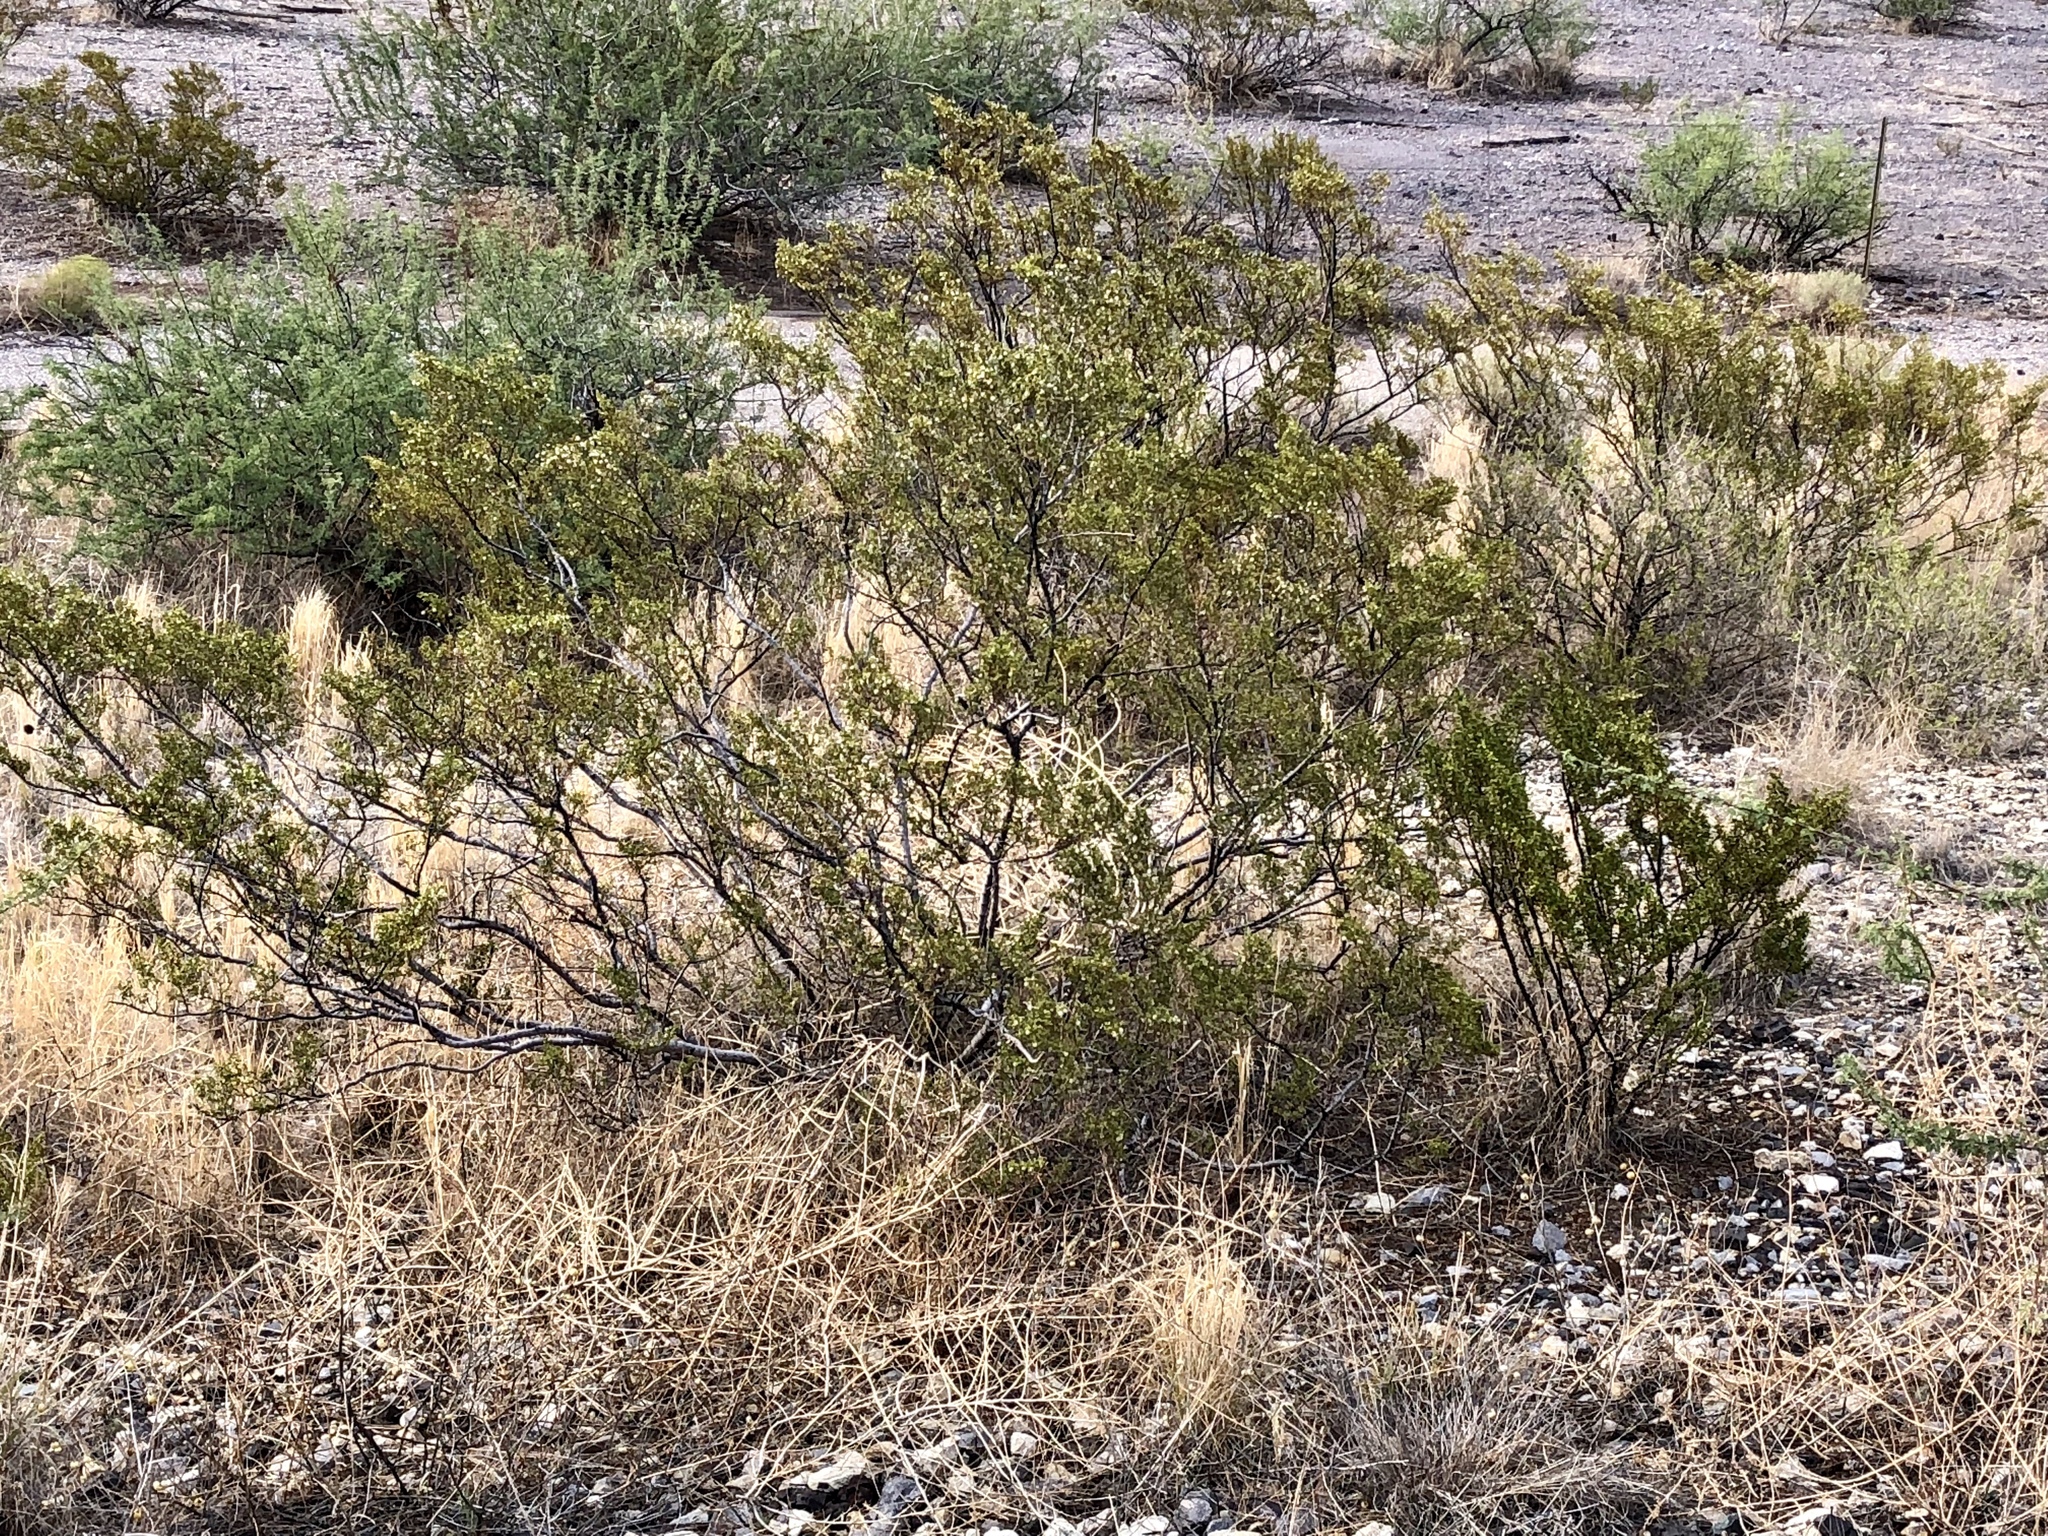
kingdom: Plantae
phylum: Tracheophyta
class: Magnoliopsida
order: Zygophyllales
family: Zygophyllaceae
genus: Larrea
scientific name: Larrea tridentata
